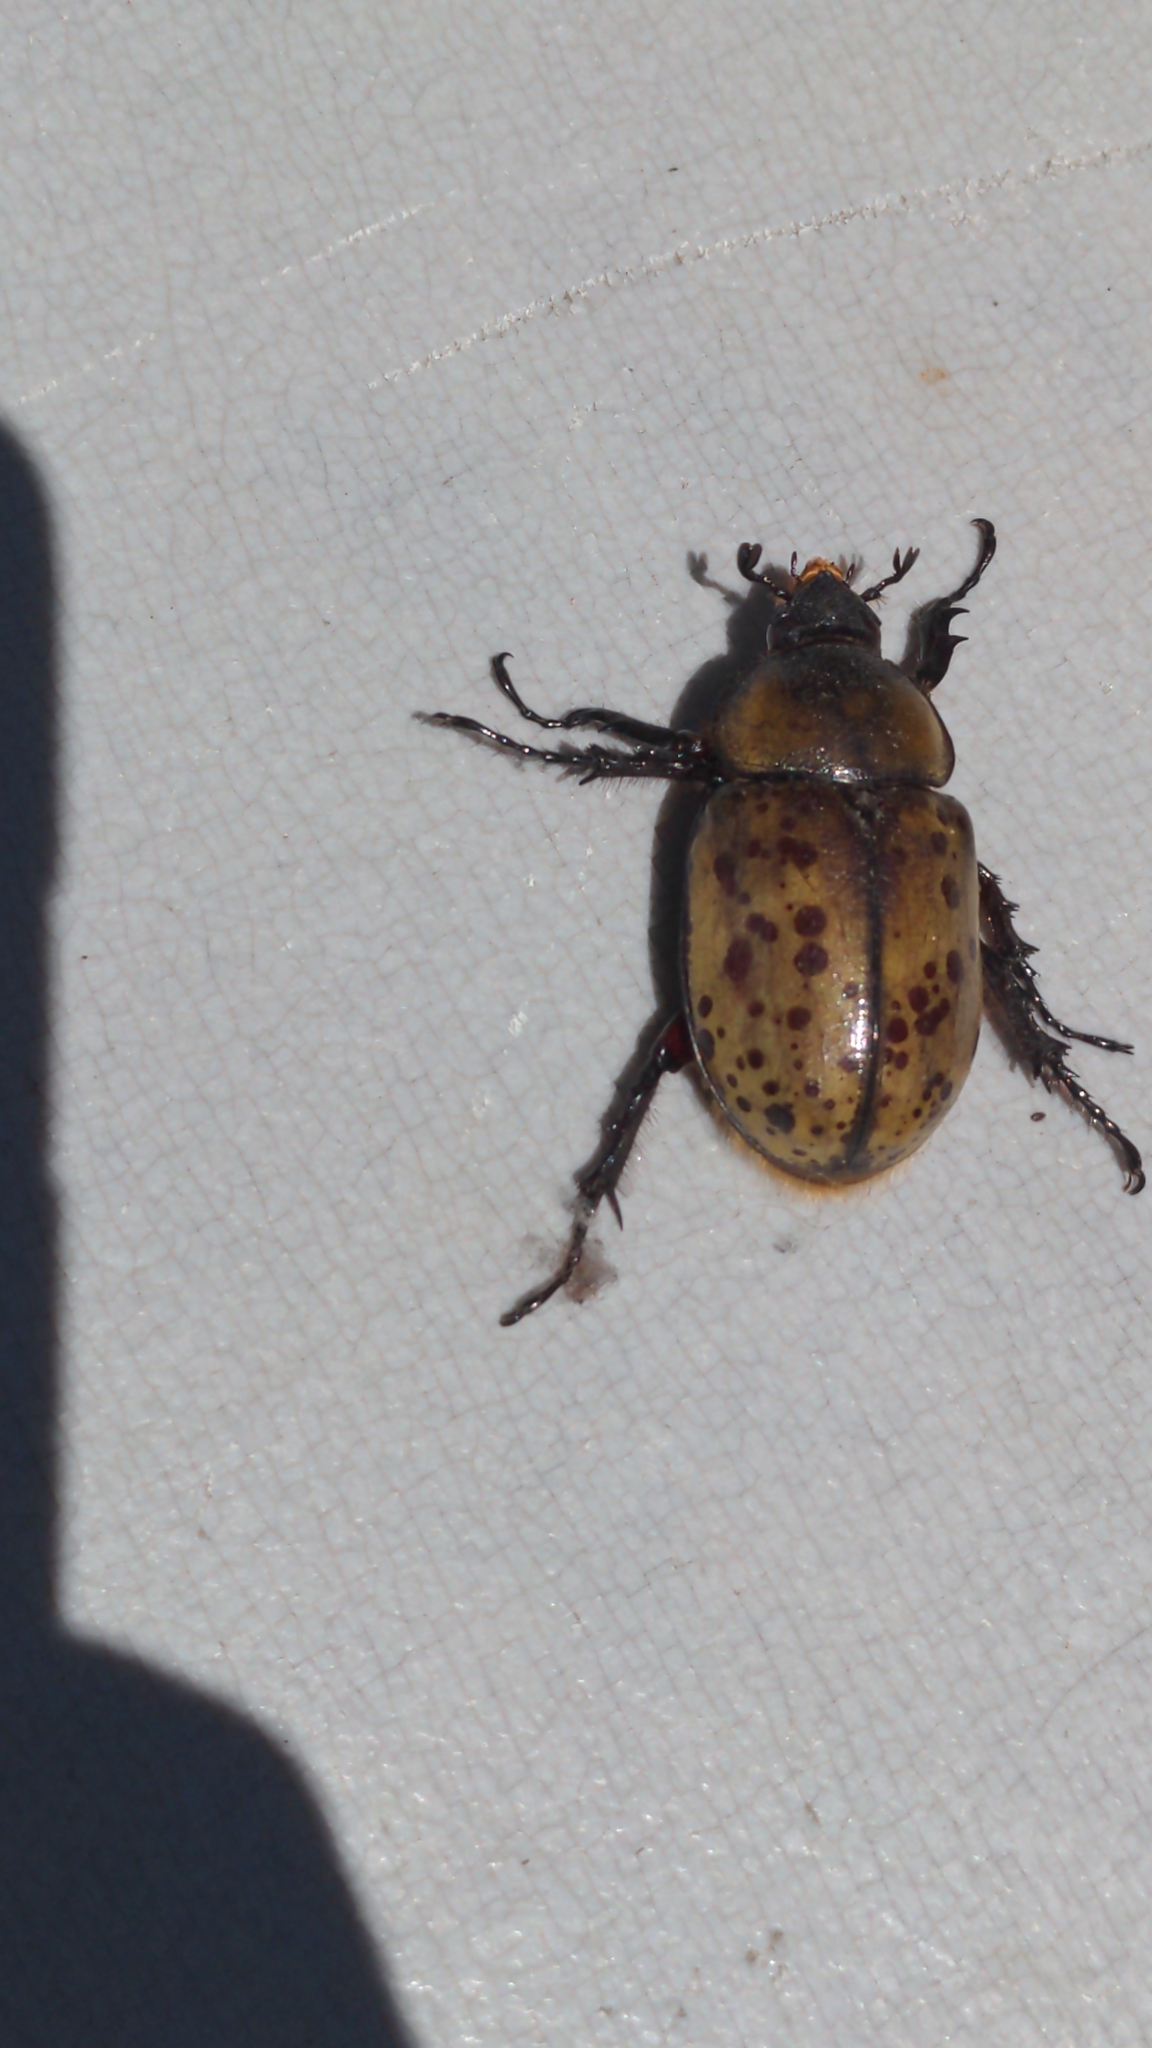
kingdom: Animalia
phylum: Arthropoda
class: Insecta
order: Coleoptera
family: Scarabaeidae
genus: Dynastes
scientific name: Dynastes tityus
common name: Eastern hercules beetle
